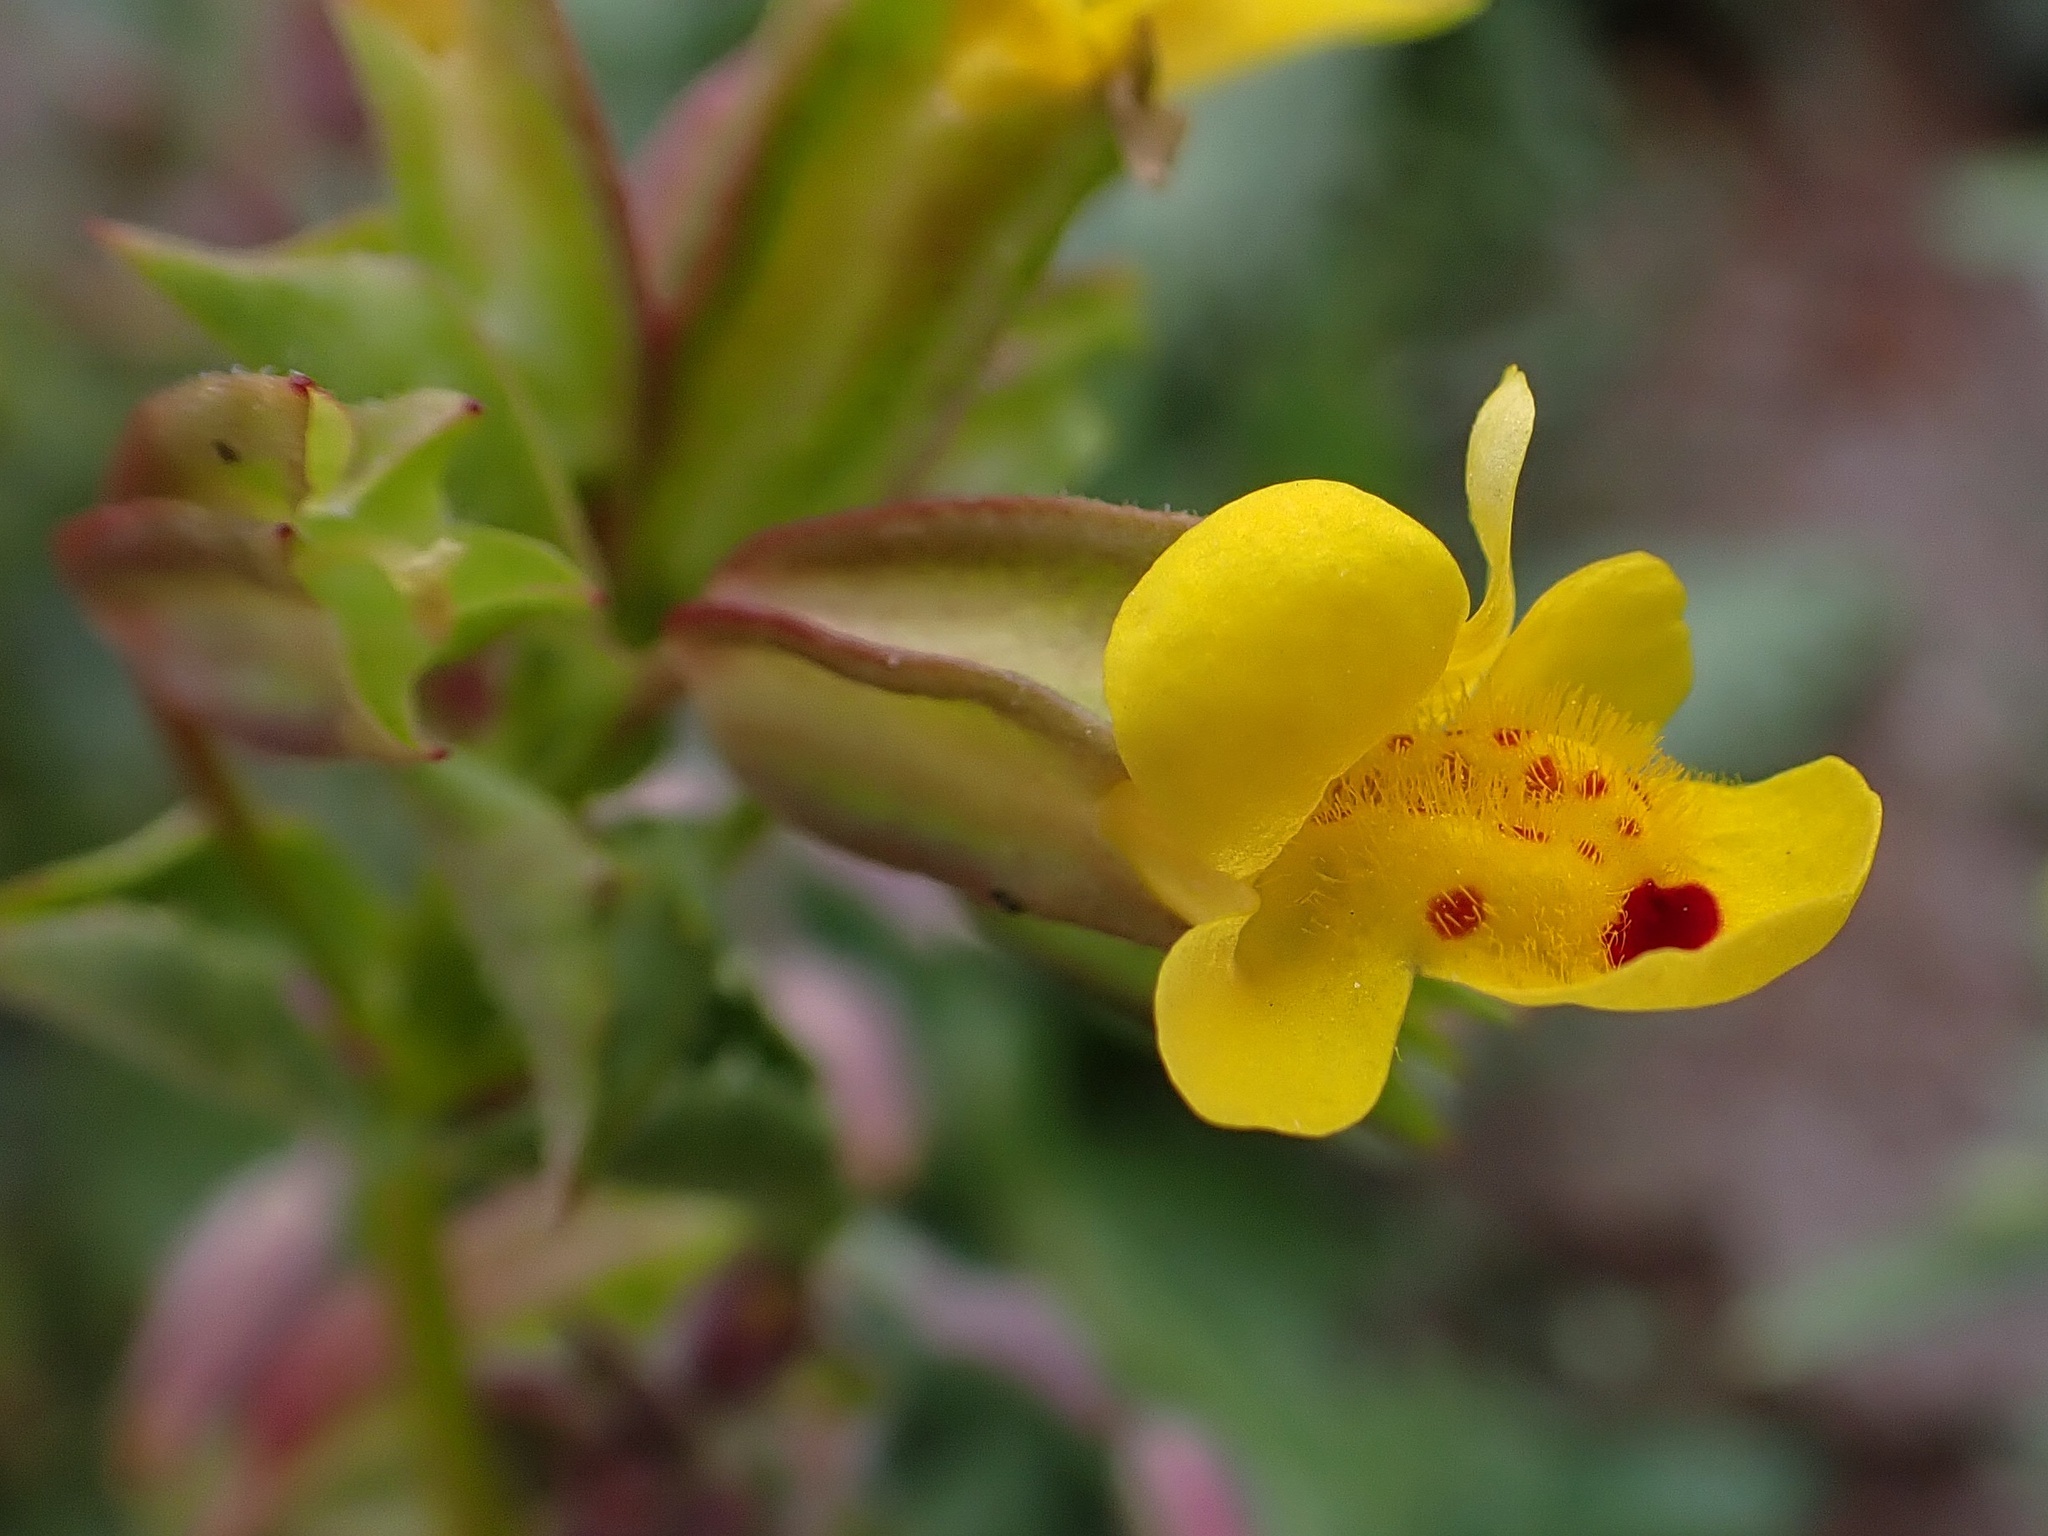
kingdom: Plantae
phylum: Tracheophyta
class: Magnoliopsida
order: Lamiales
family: Phrymaceae
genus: Erythranthe
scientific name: Erythranthe nasuta
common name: Sooke monkeyflower
